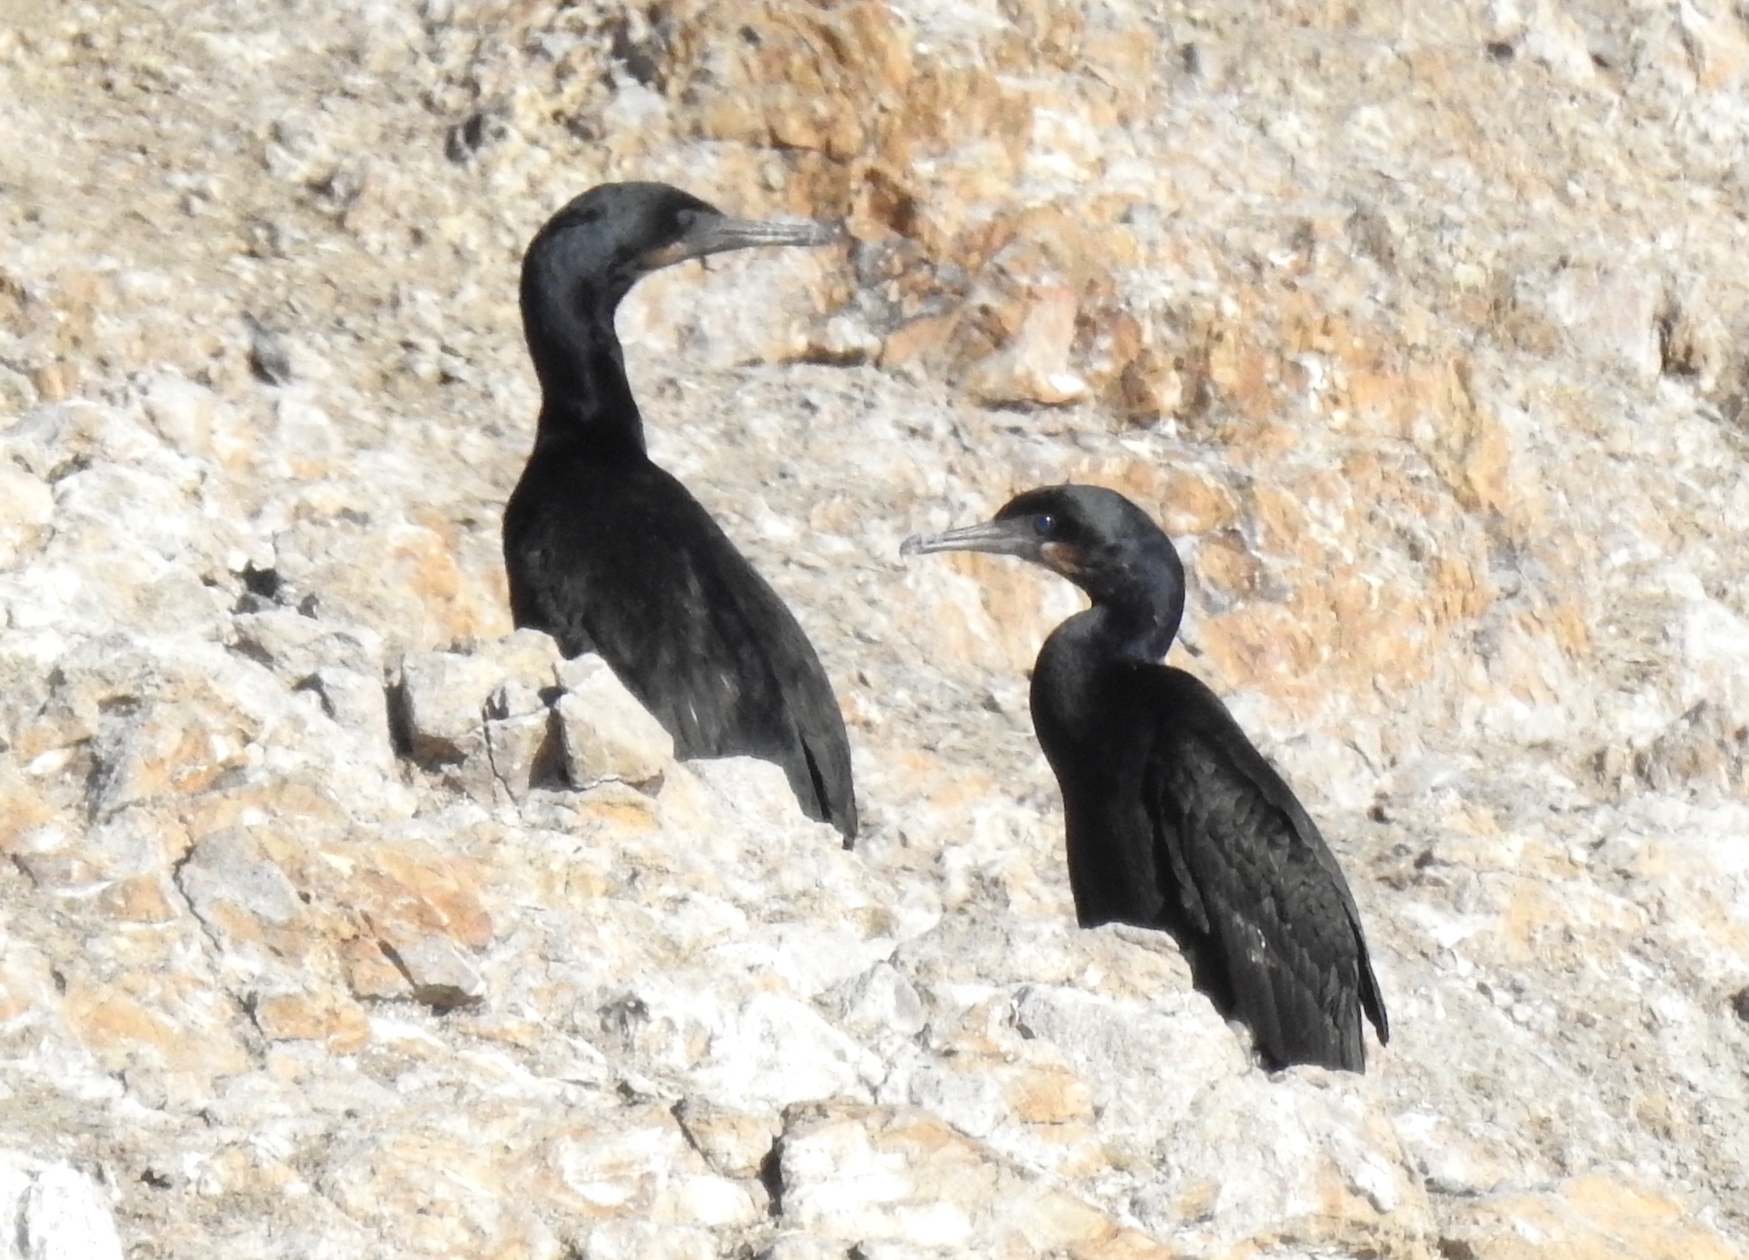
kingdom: Animalia
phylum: Chordata
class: Aves
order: Suliformes
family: Phalacrocoracidae
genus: Urile
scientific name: Urile penicillatus
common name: Brandt's cormorant
